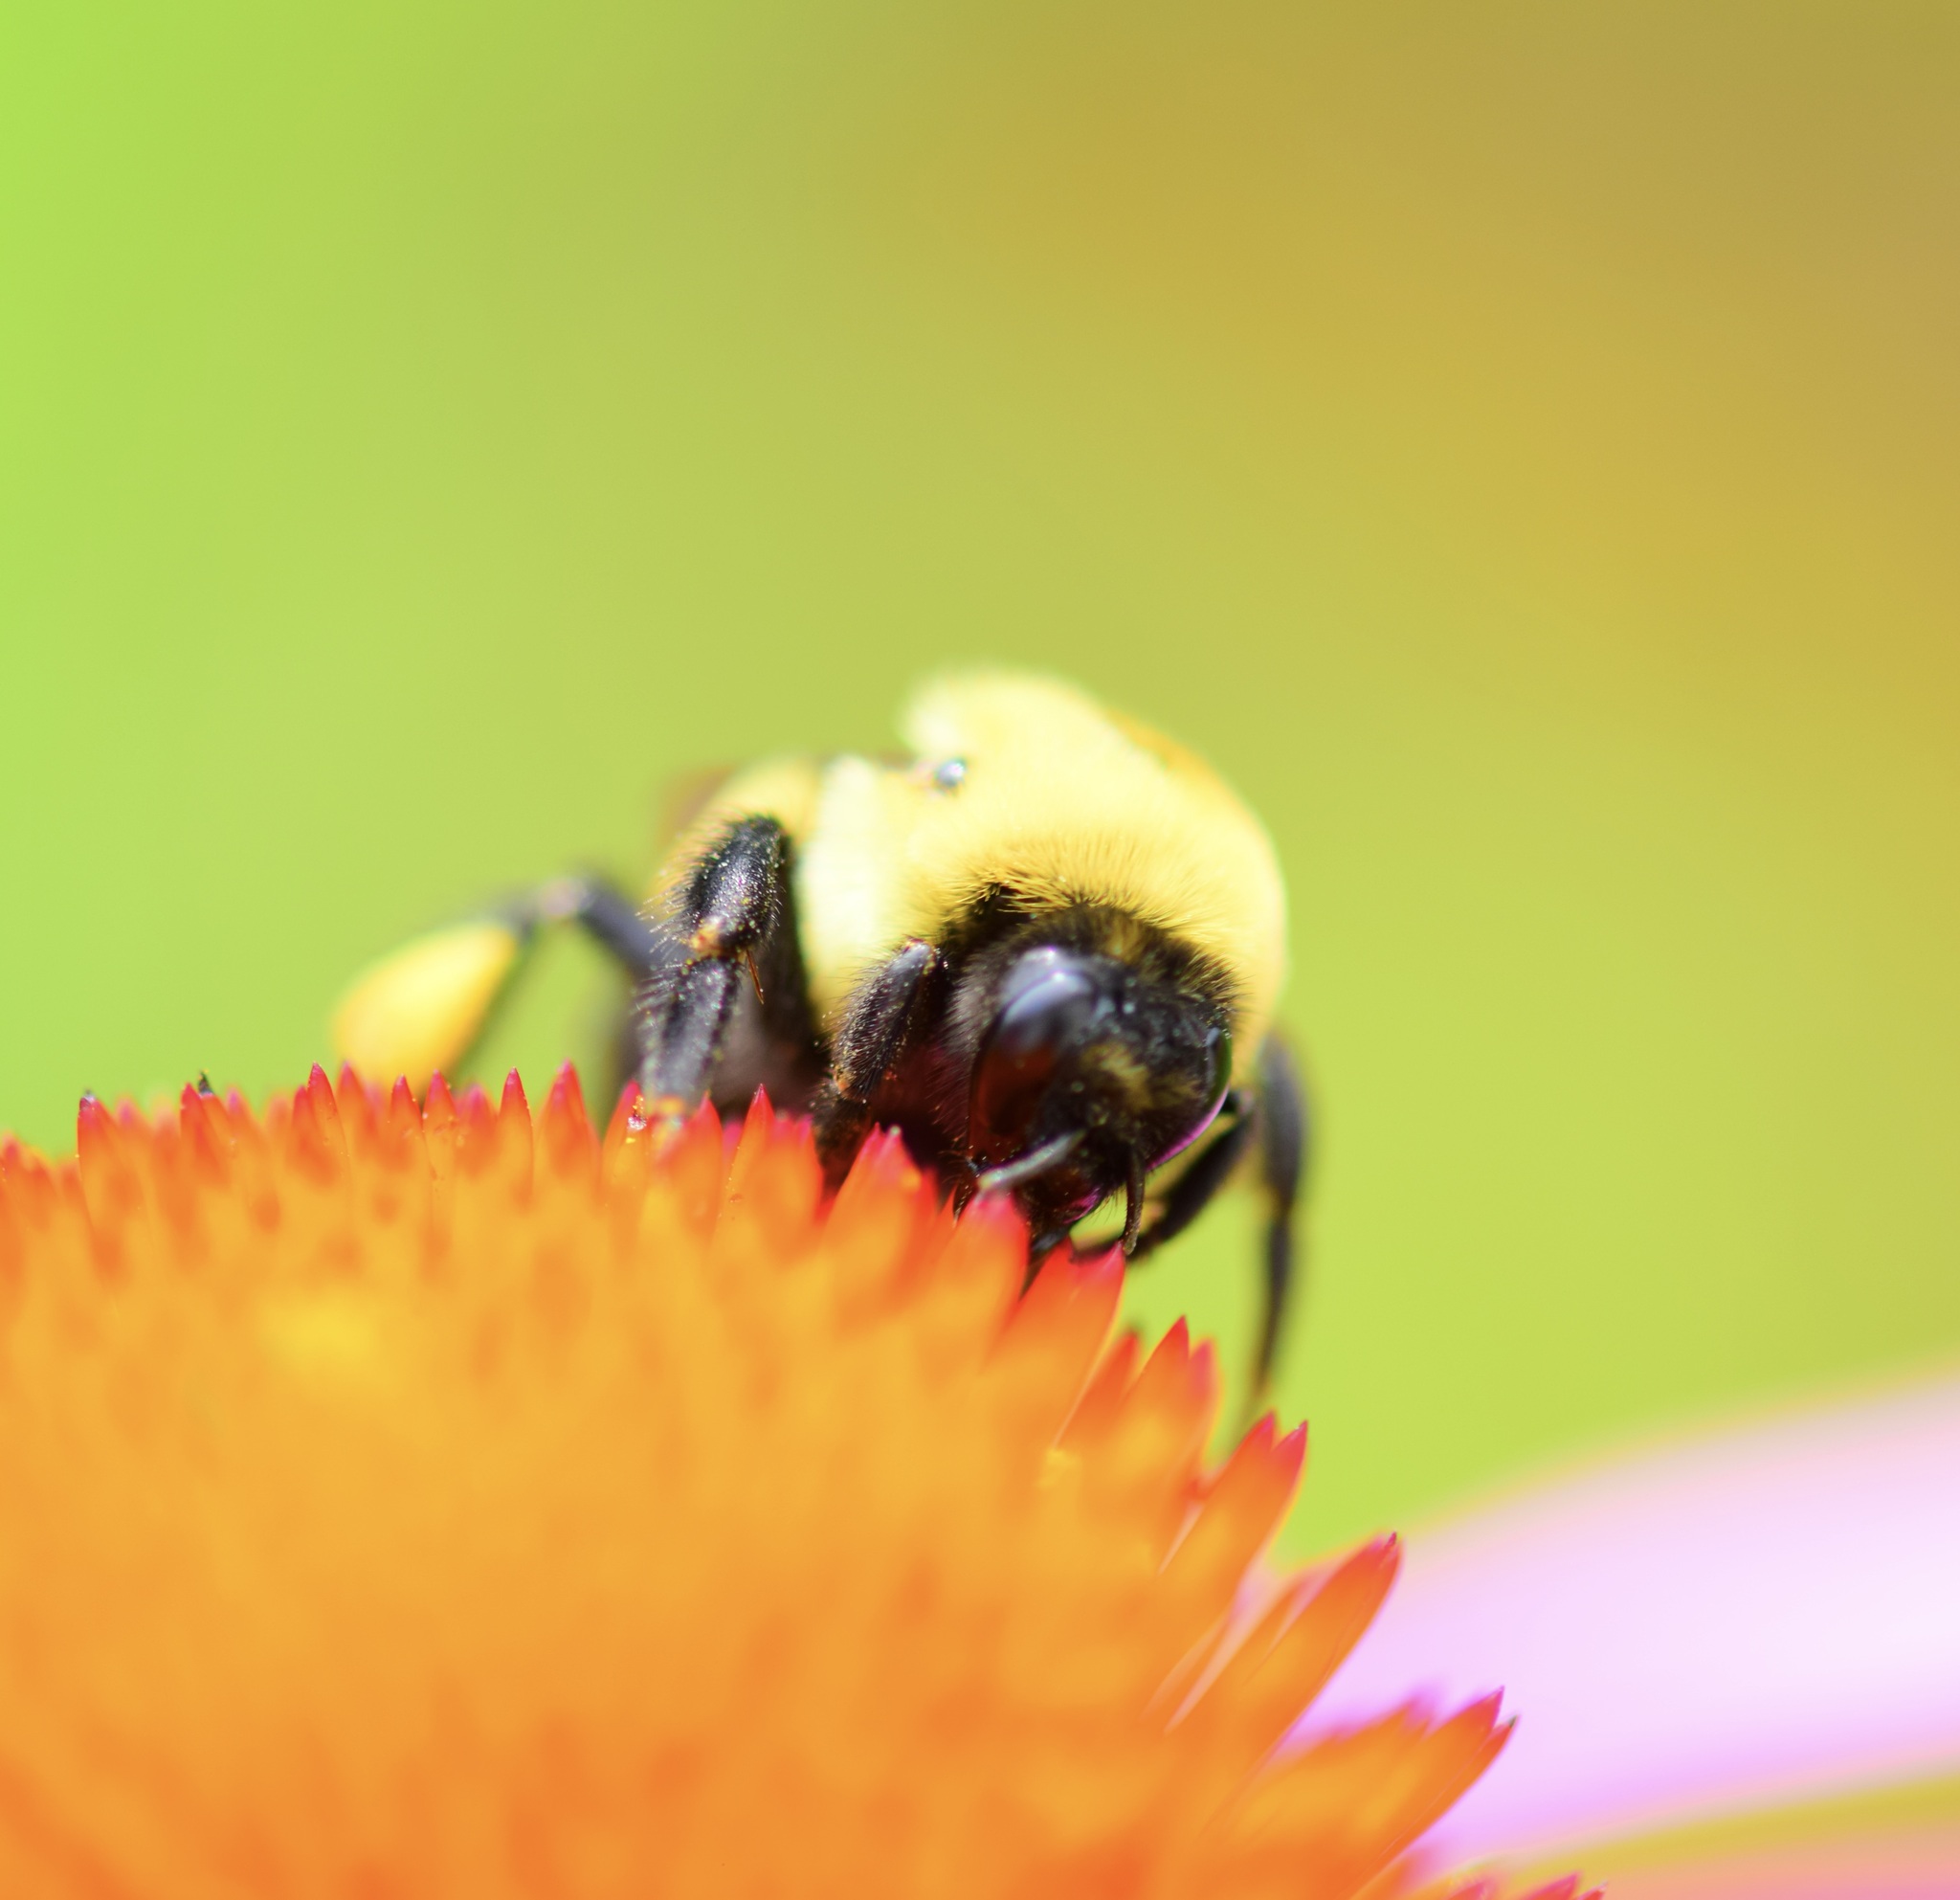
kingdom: Animalia
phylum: Arthropoda
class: Insecta
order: Hymenoptera
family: Apidae
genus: Bombus
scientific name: Bombus griseocollis
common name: Brown-belted bumble bee
